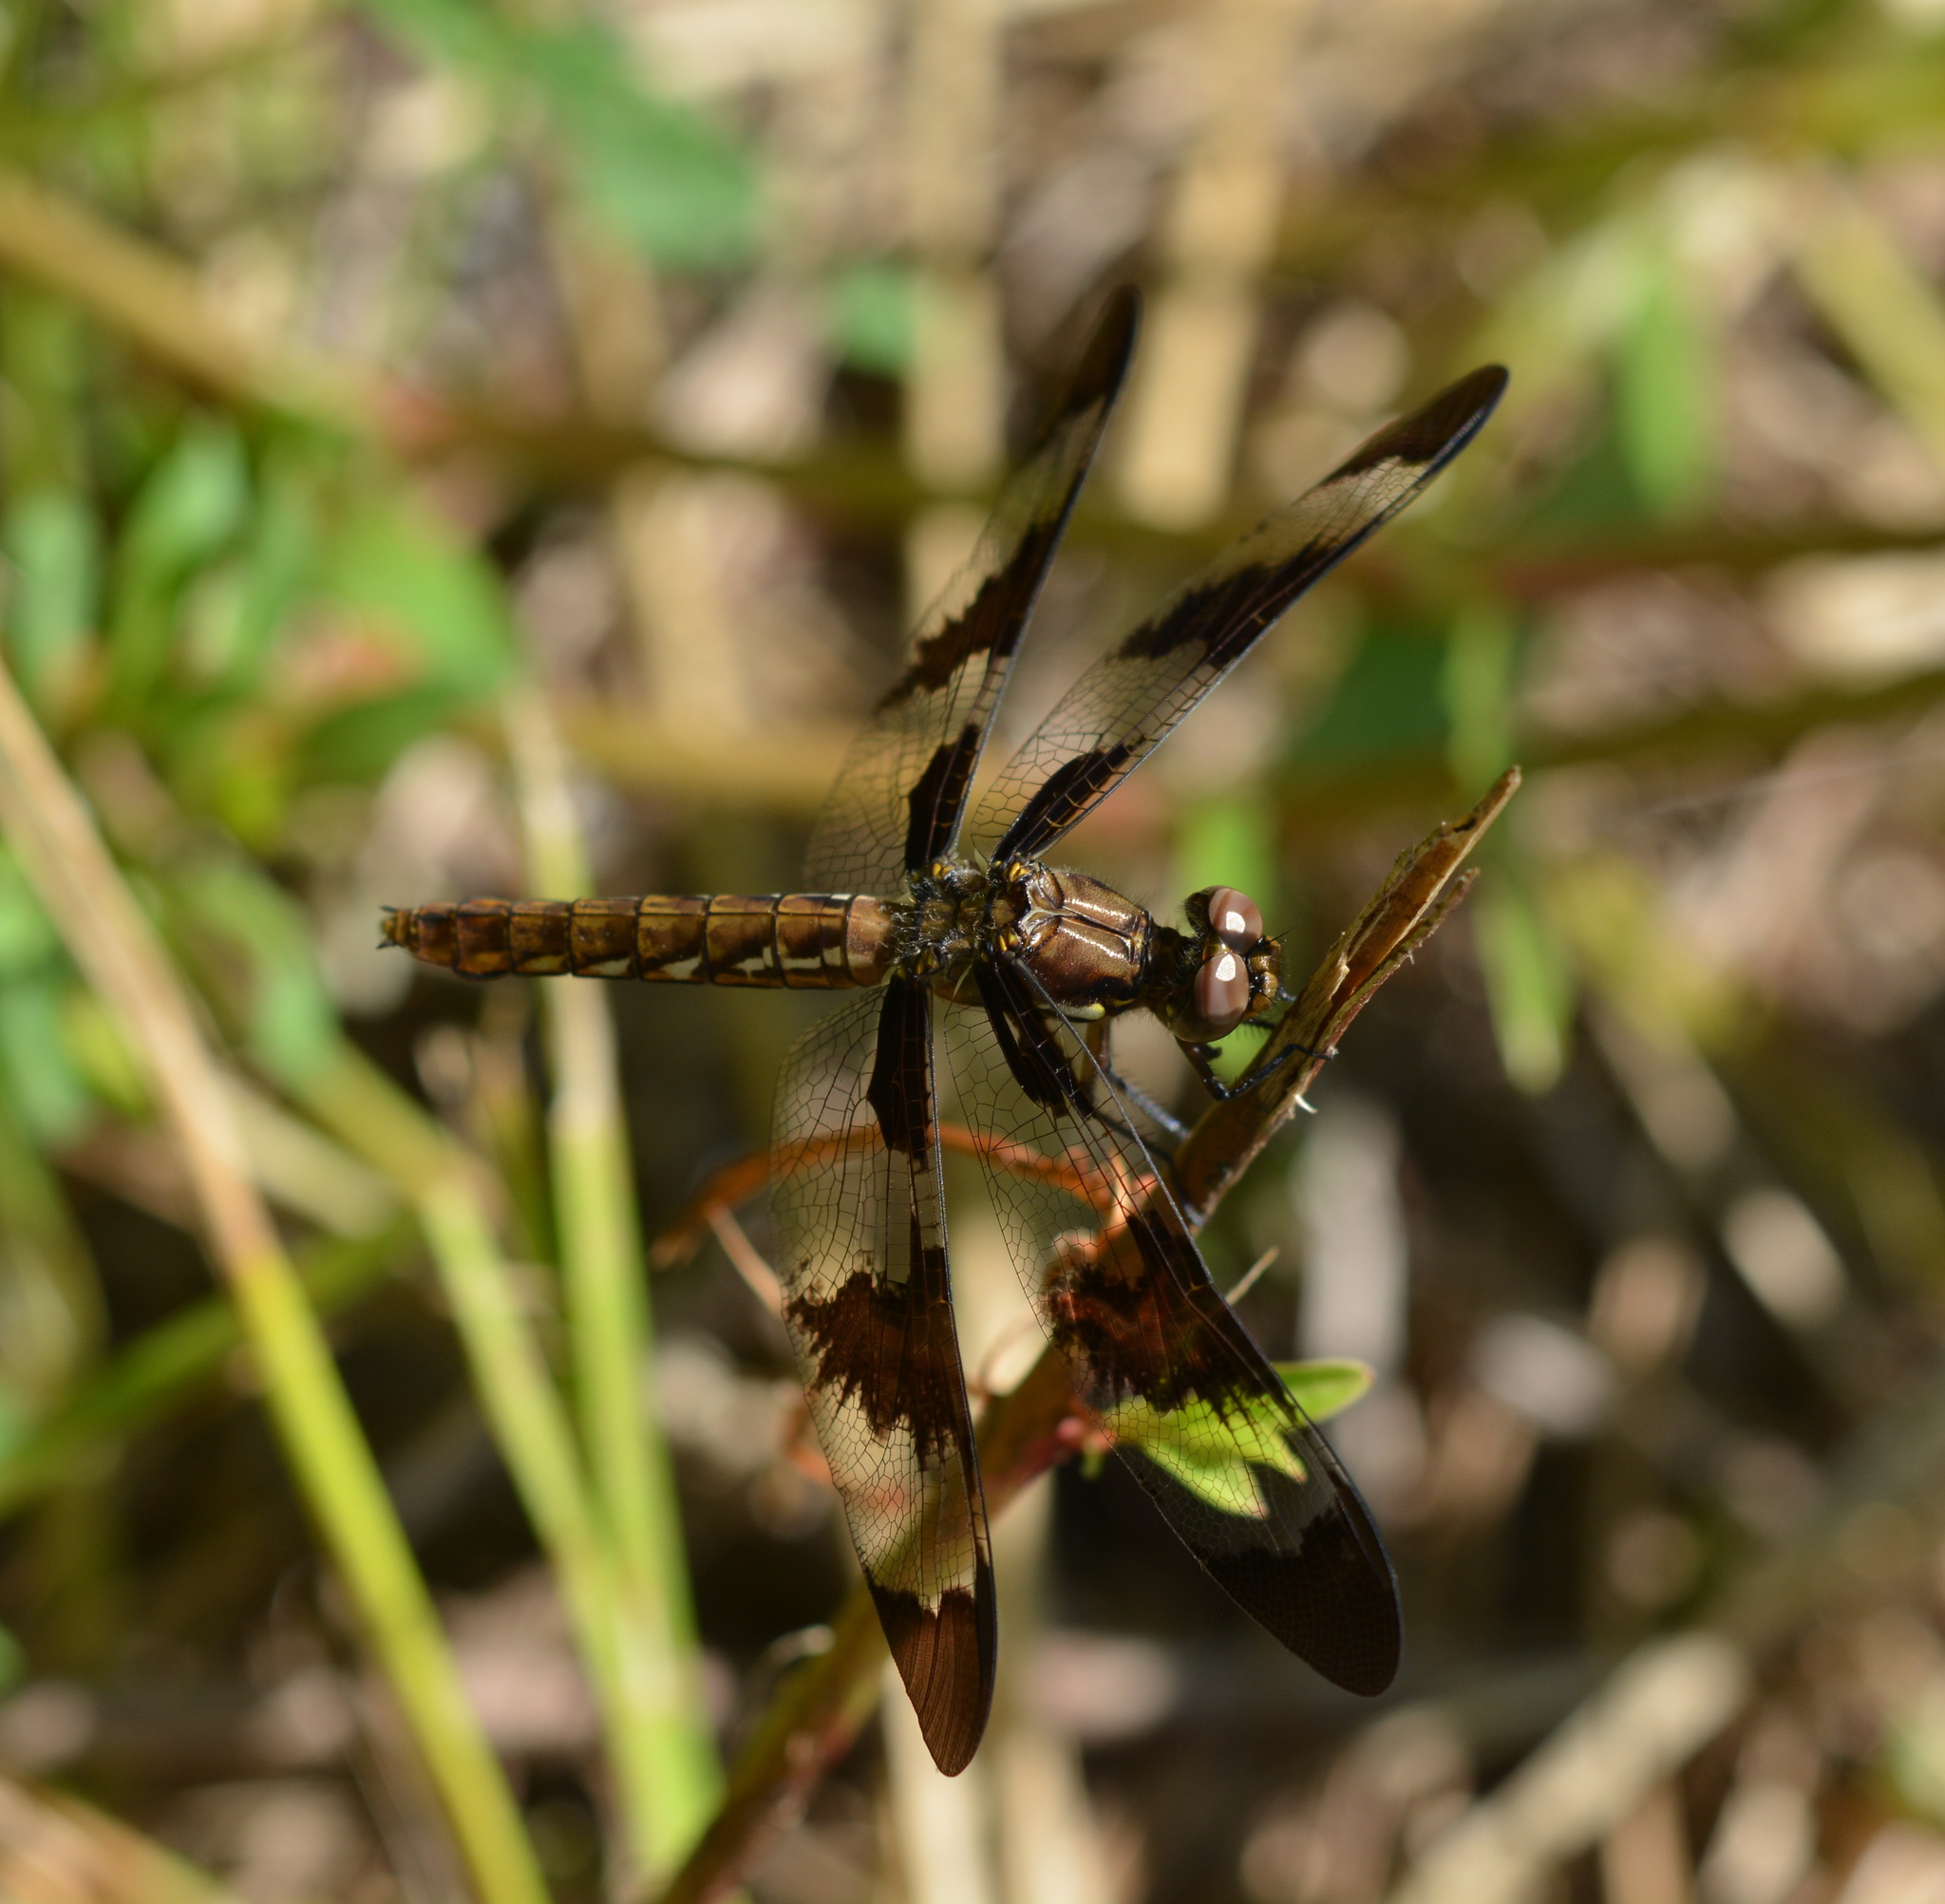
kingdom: Animalia
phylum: Arthropoda
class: Insecta
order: Odonata
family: Libellulidae
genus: Plathemis
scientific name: Plathemis lydia
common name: Common whitetail
